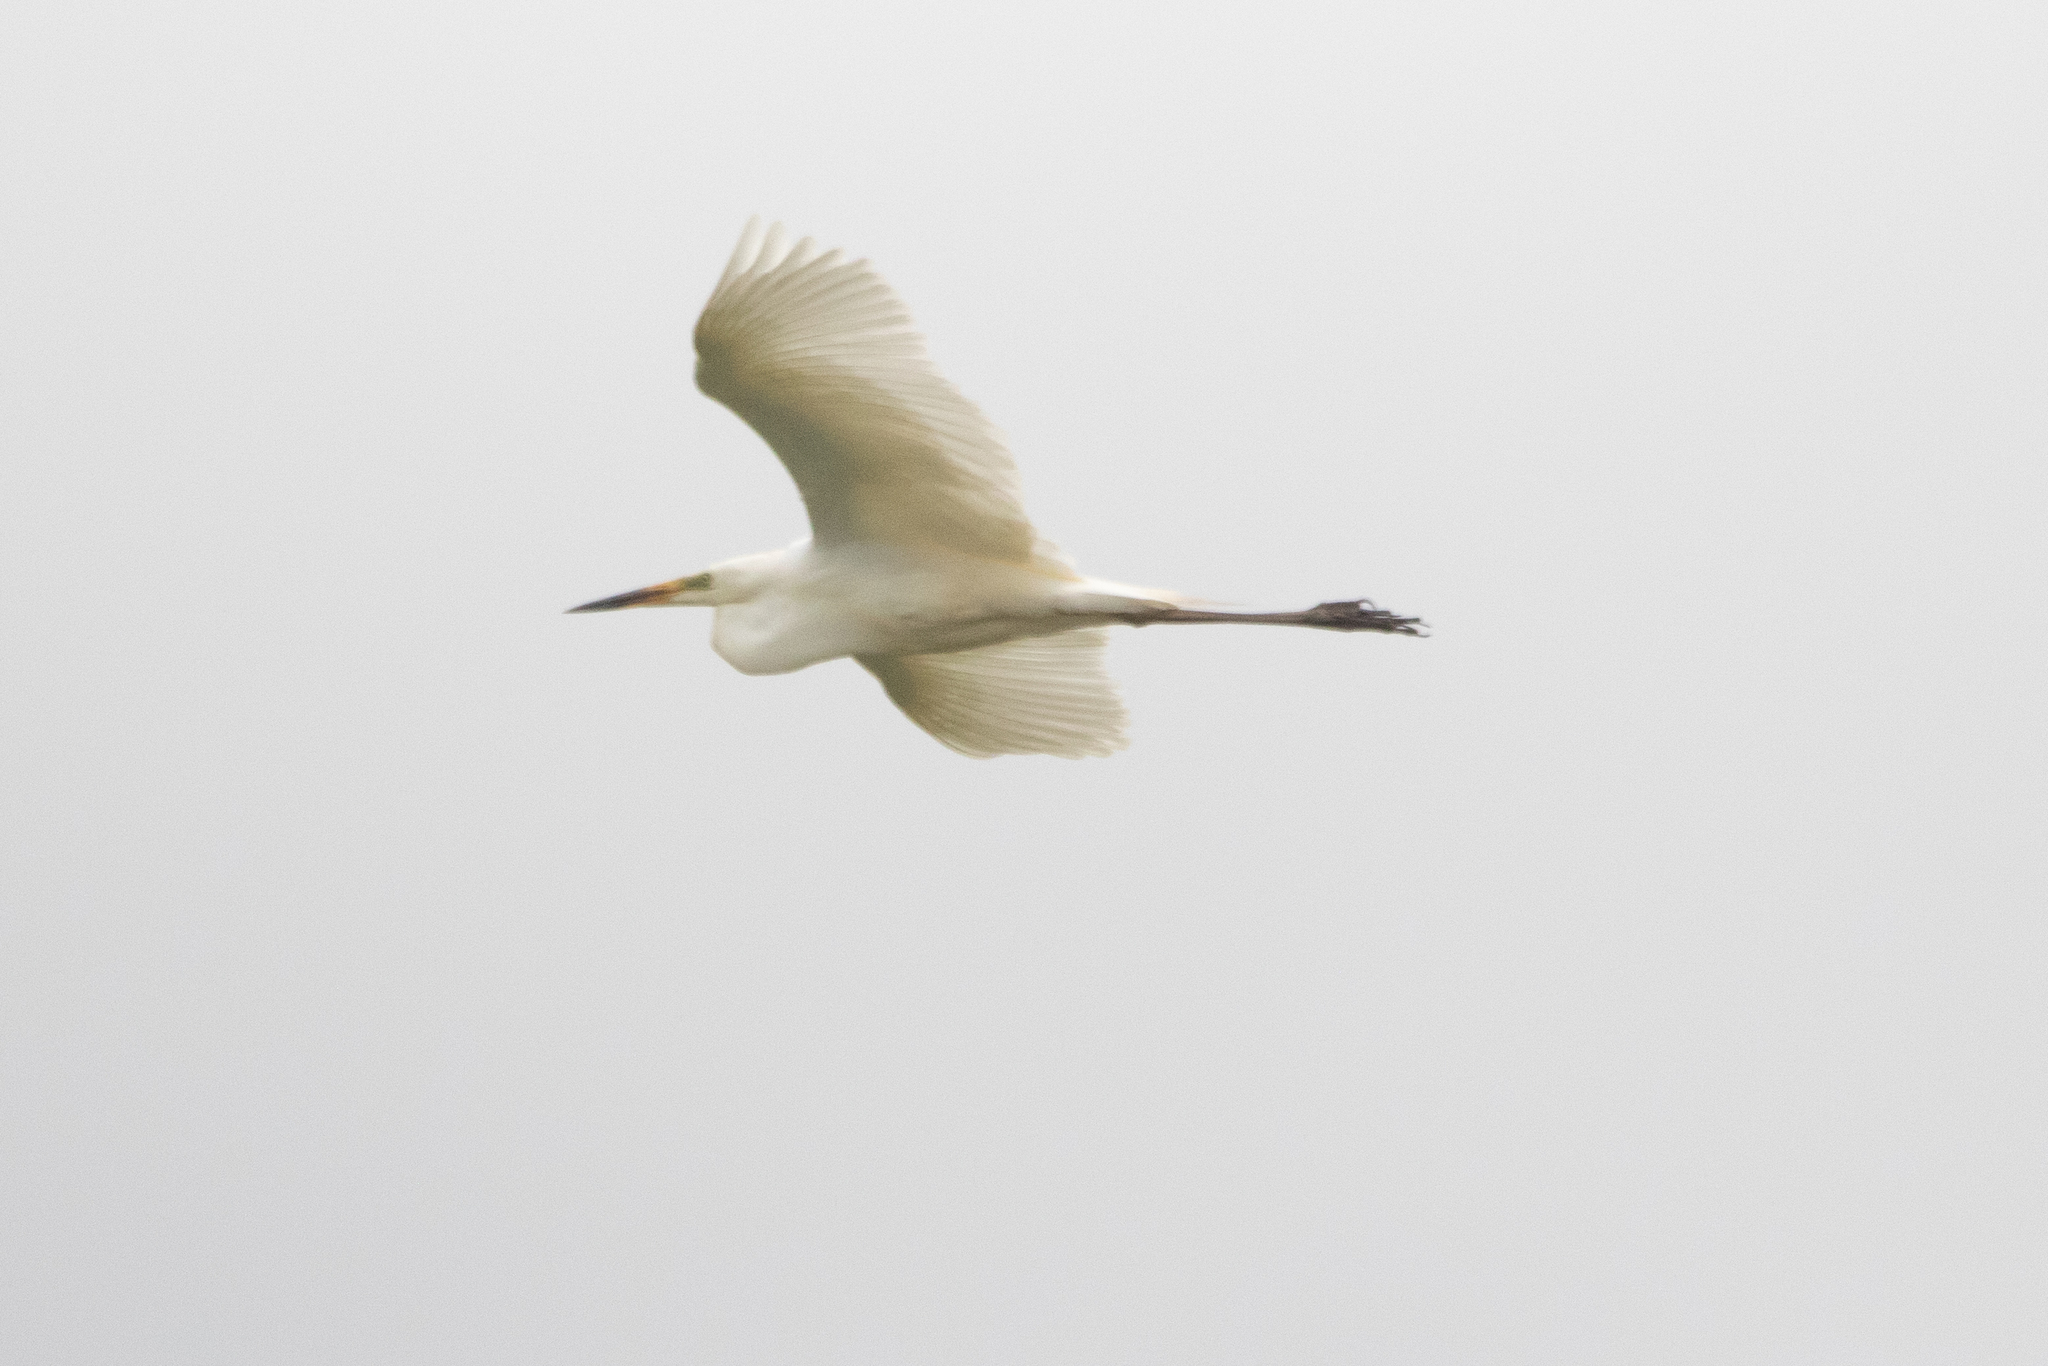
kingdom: Animalia
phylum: Chordata
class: Aves
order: Pelecaniformes
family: Ardeidae
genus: Ardea
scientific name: Ardea alba
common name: Great egret
